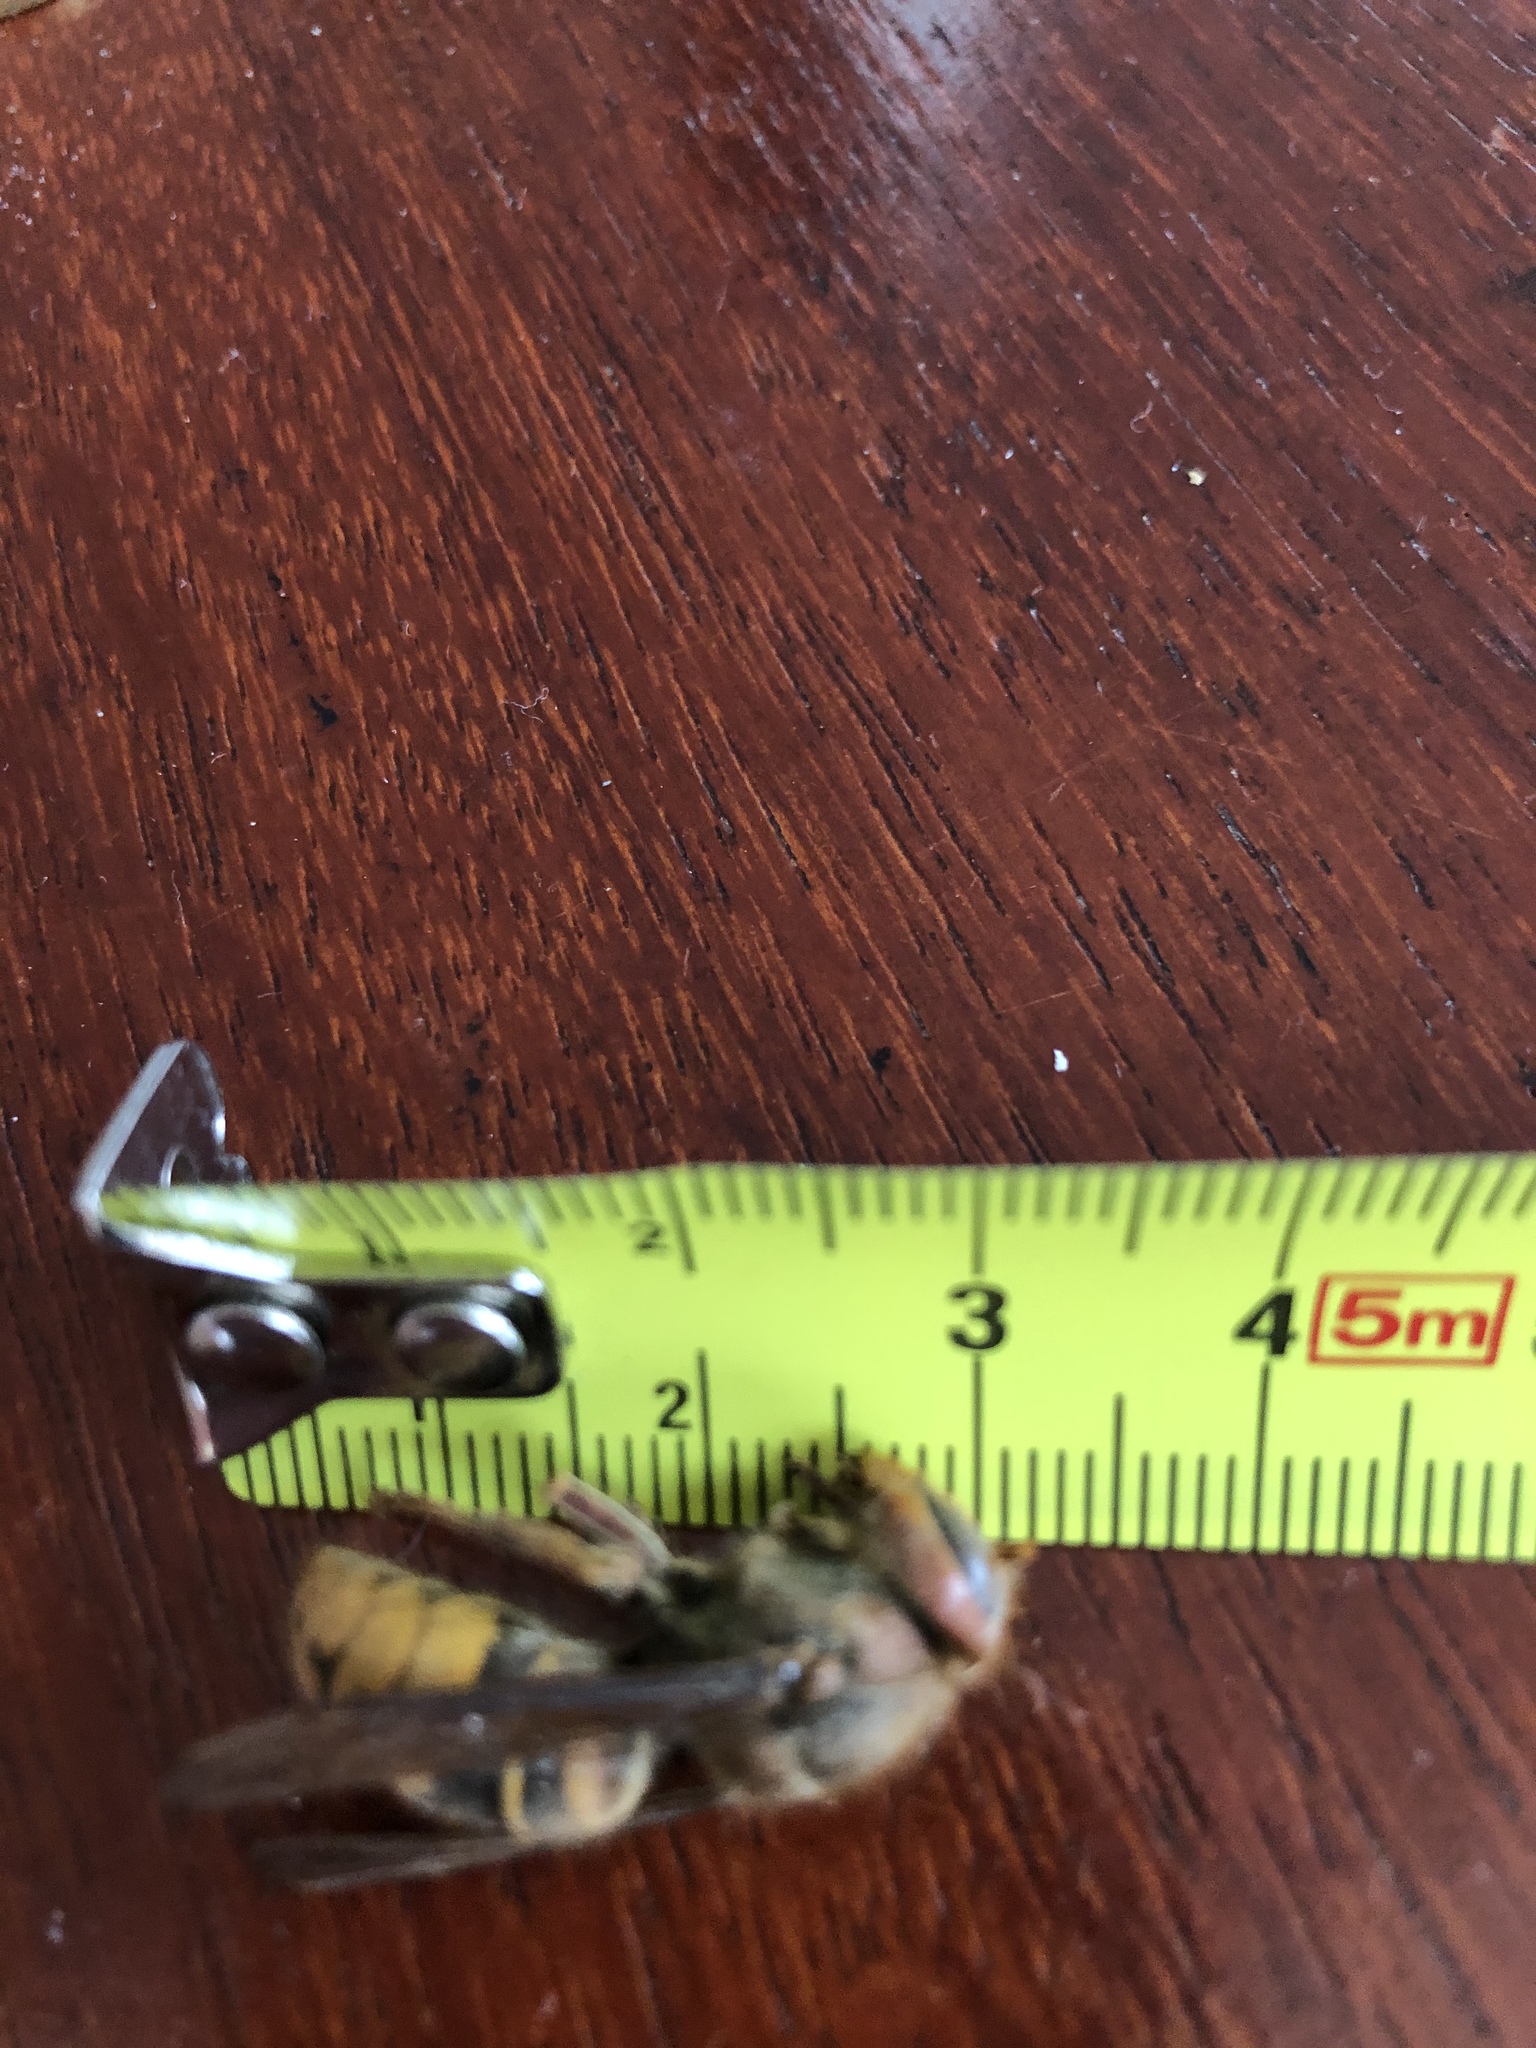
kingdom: Animalia
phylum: Arthropoda
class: Insecta
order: Hymenoptera
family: Vespidae
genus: Vespa
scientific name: Vespa crabro
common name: Hornet
